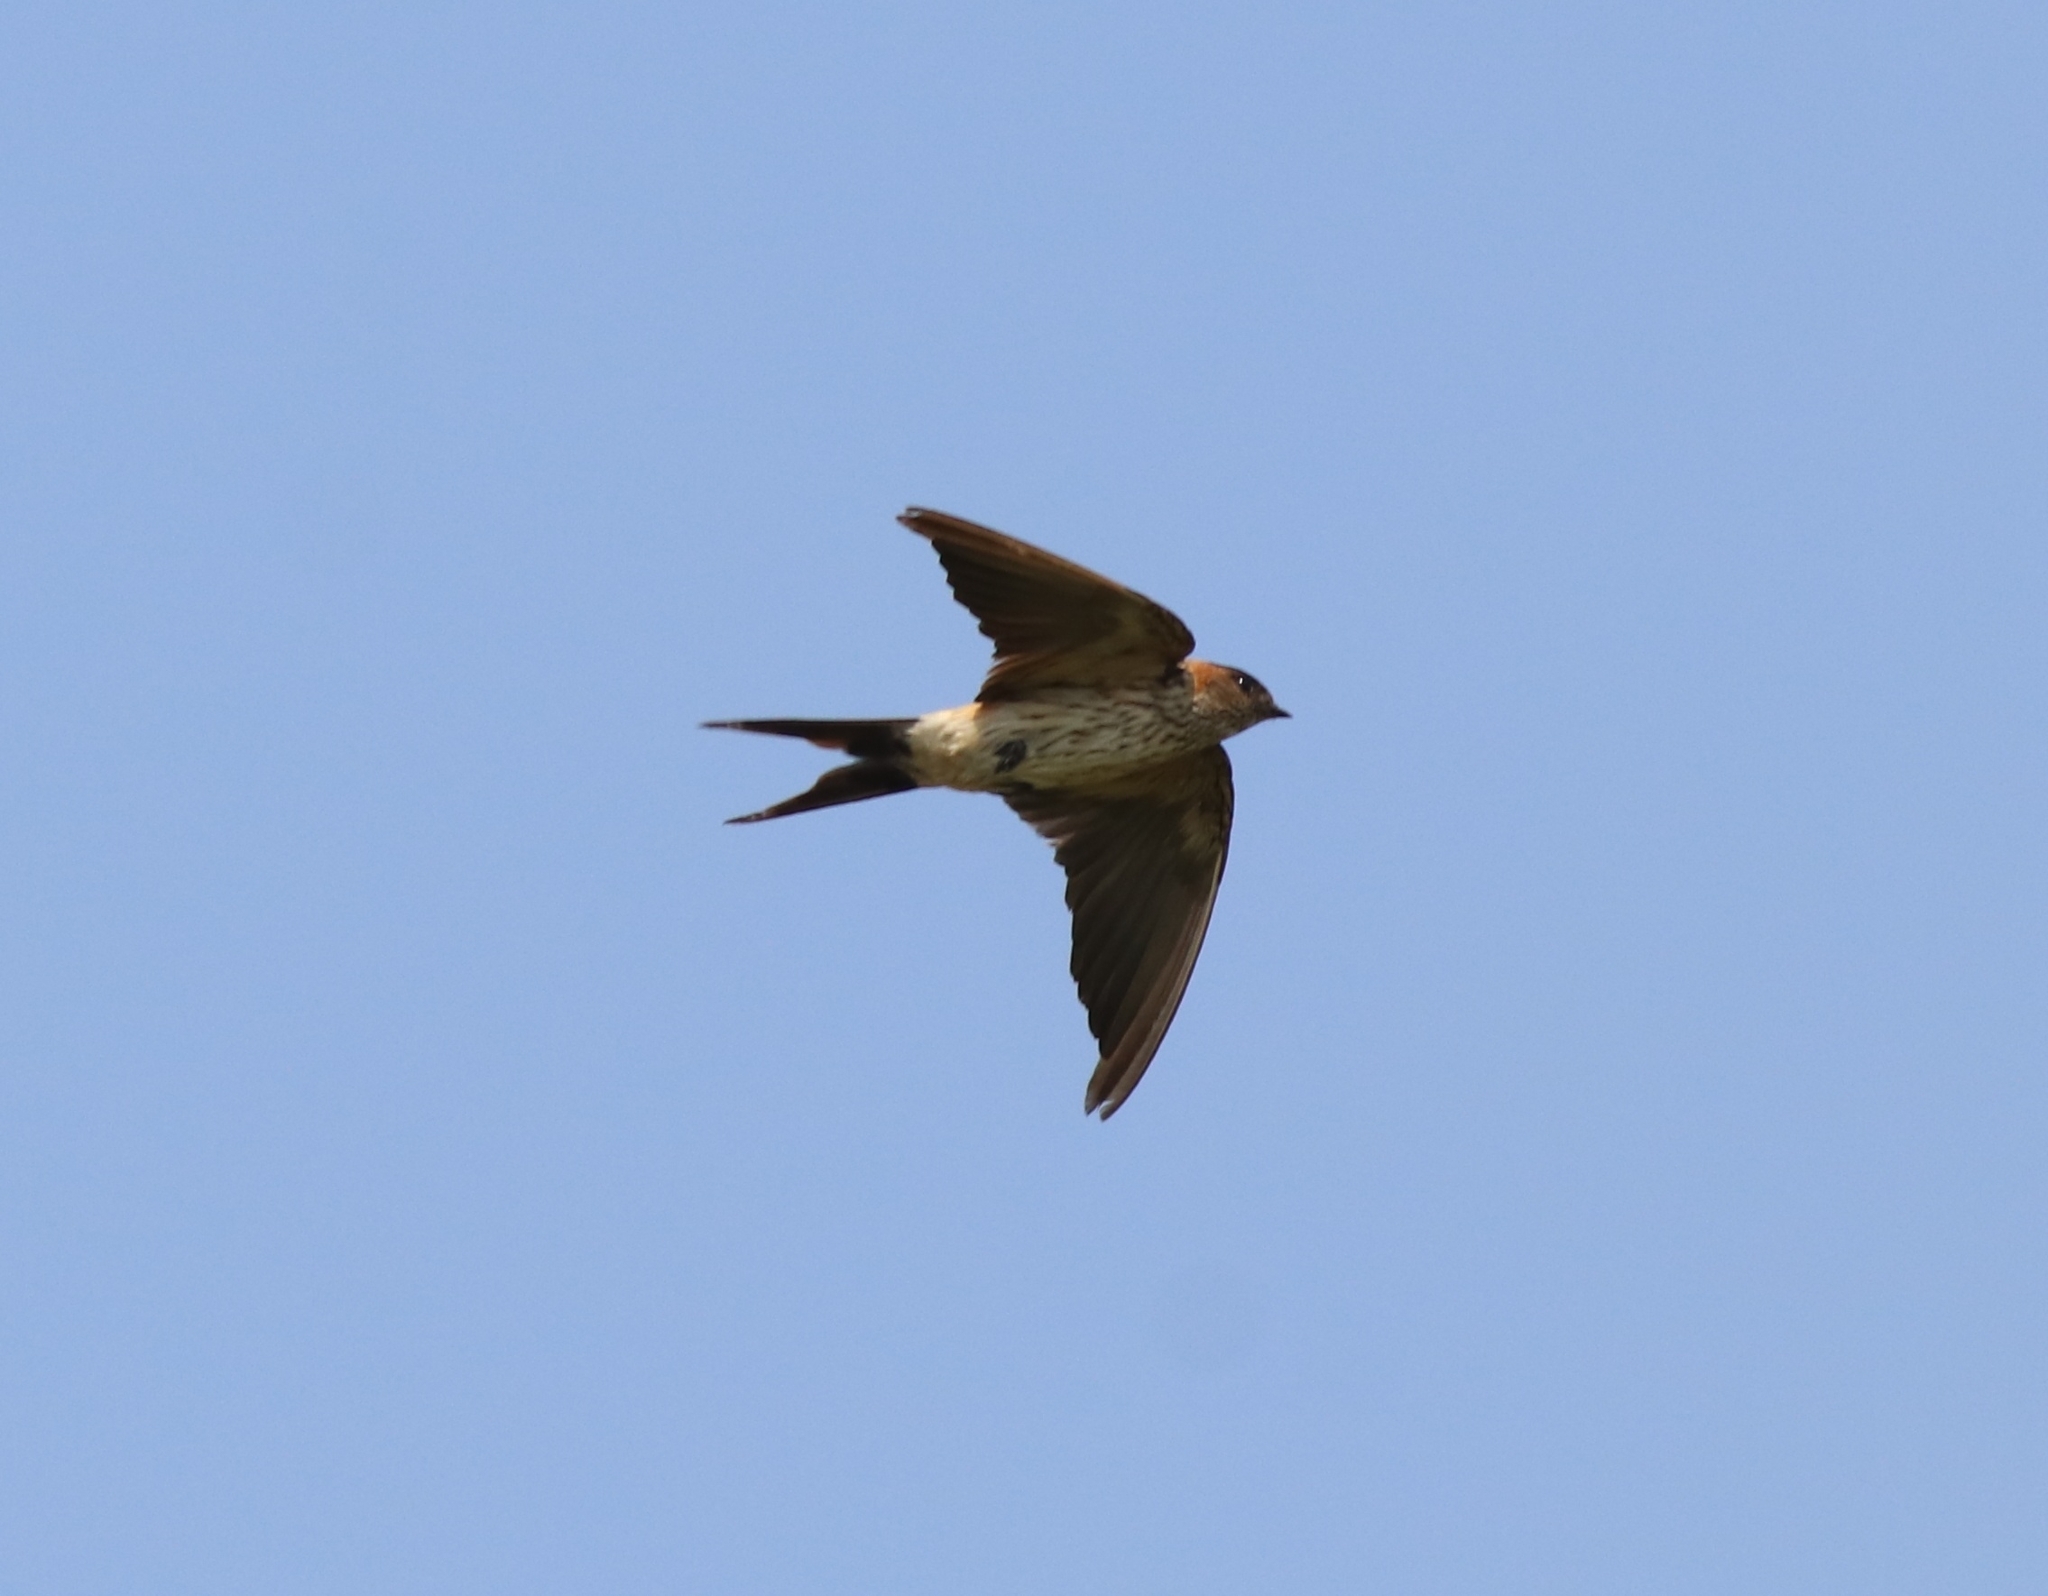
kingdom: Animalia
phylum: Chordata
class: Aves
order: Passeriformes
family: Hirundinidae
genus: Cecropis
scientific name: Cecropis daurica
